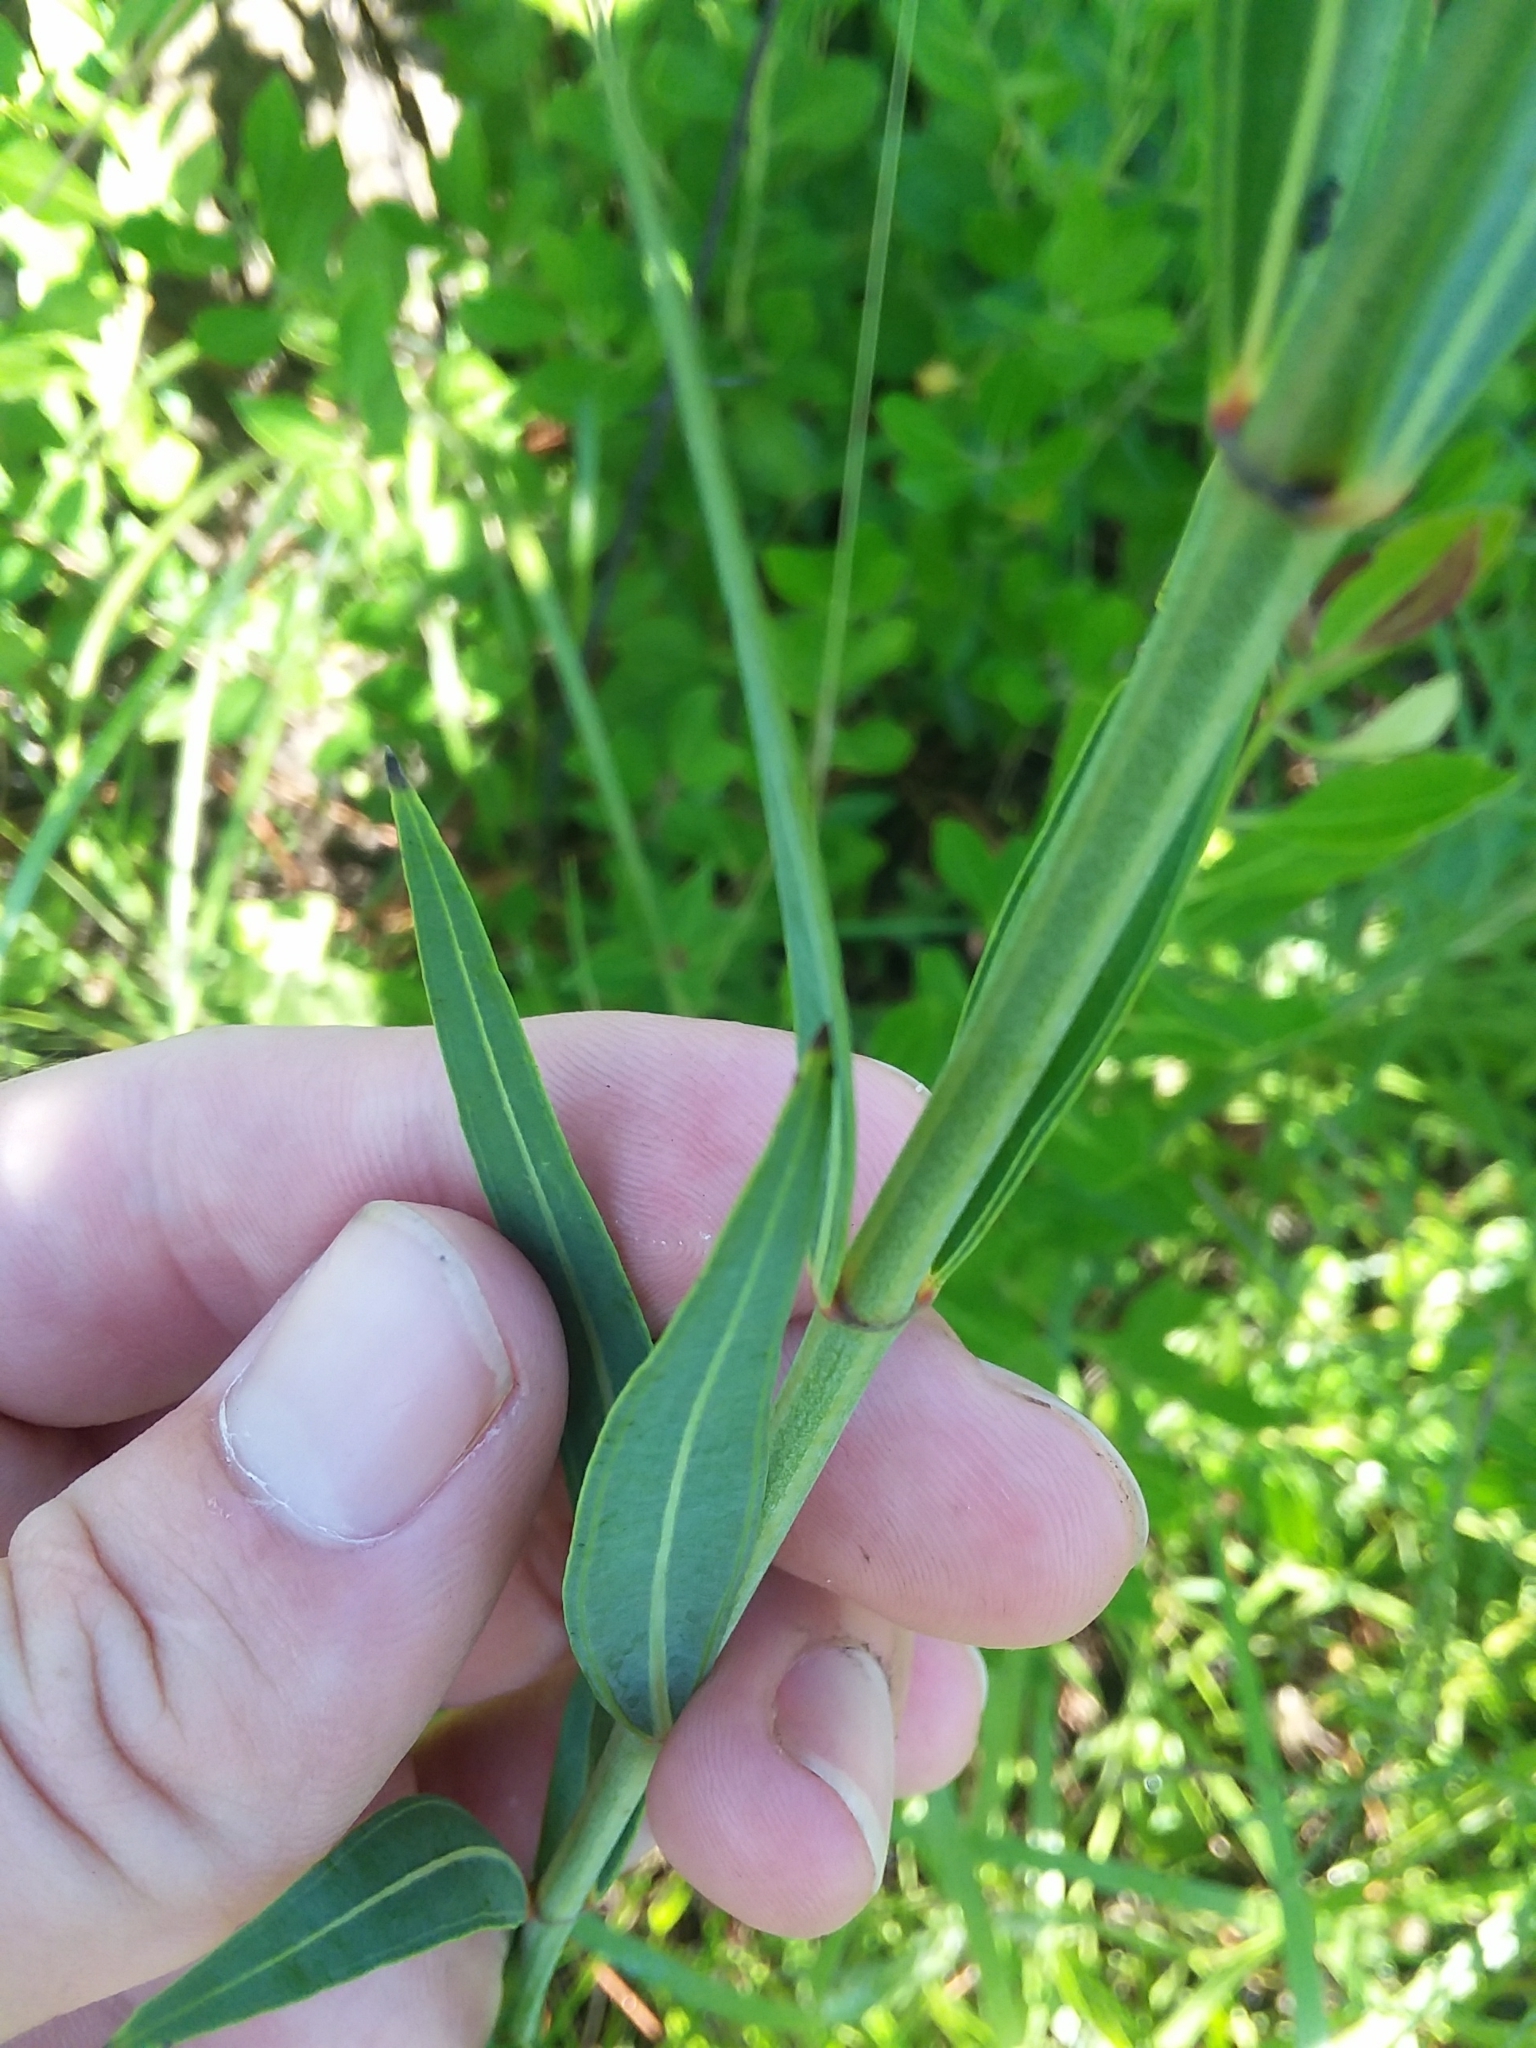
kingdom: Plantae
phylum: Tracheophyta
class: Magnoliopsida
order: Myrtales
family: Melastomataceae
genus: Rhexia
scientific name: Rhexia alifanus
